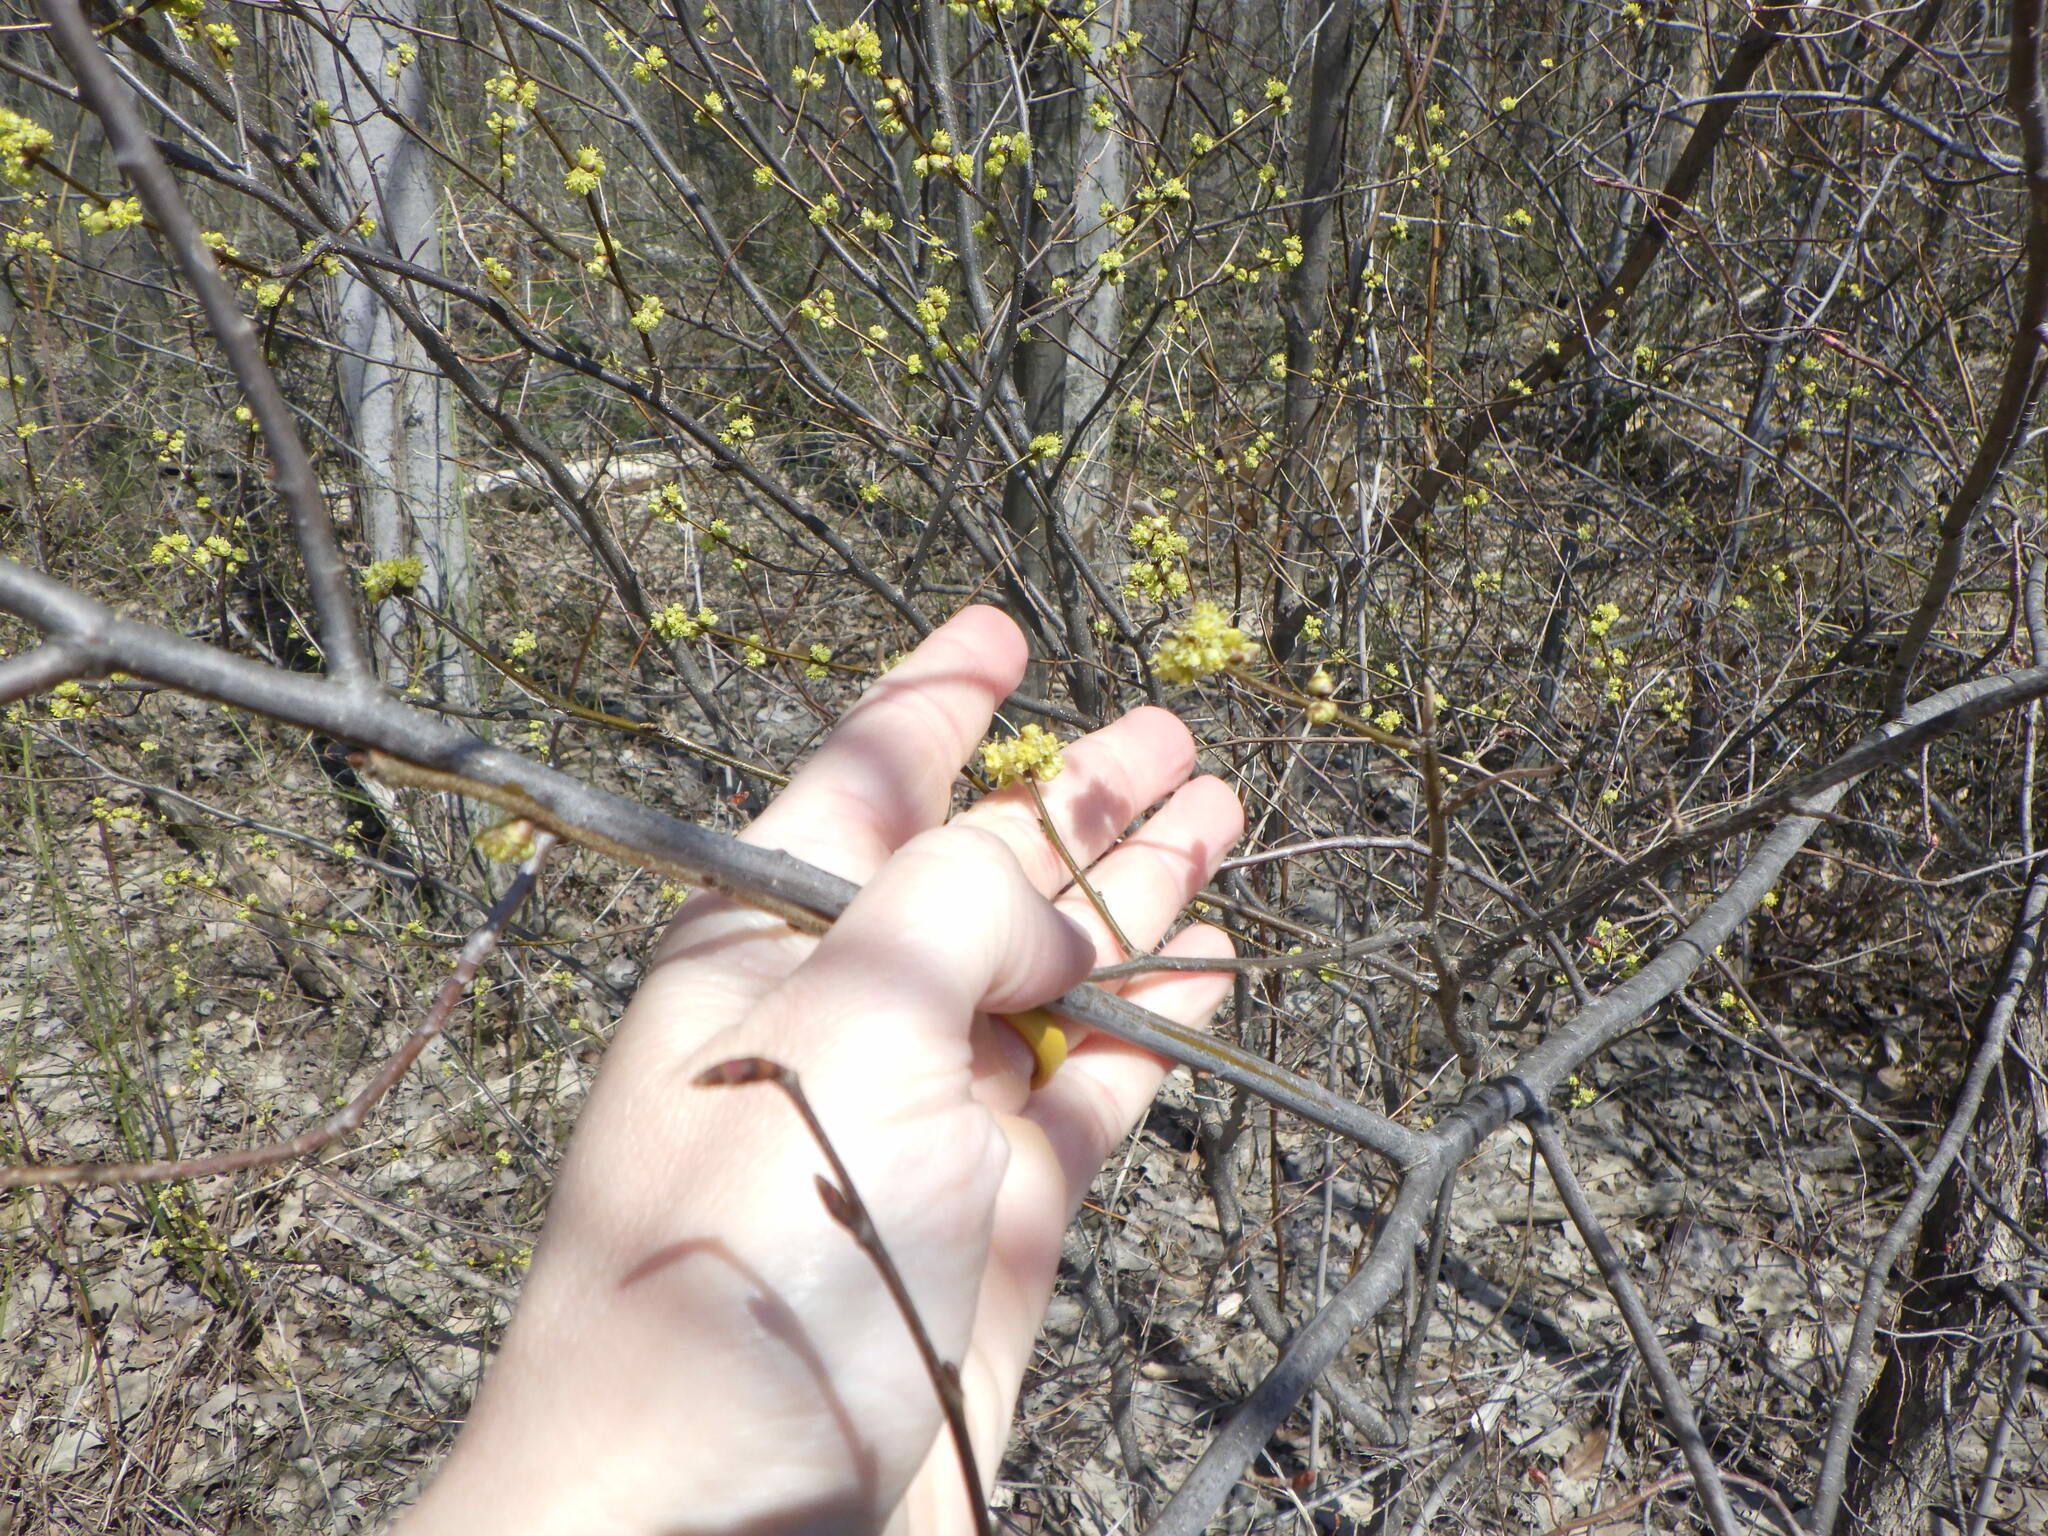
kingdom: Plantae
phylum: Tracheophyta
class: Magnoliopsida
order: Laurales
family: Lauraceae
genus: Lindera
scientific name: Lindera benzoin
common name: Spicebush
